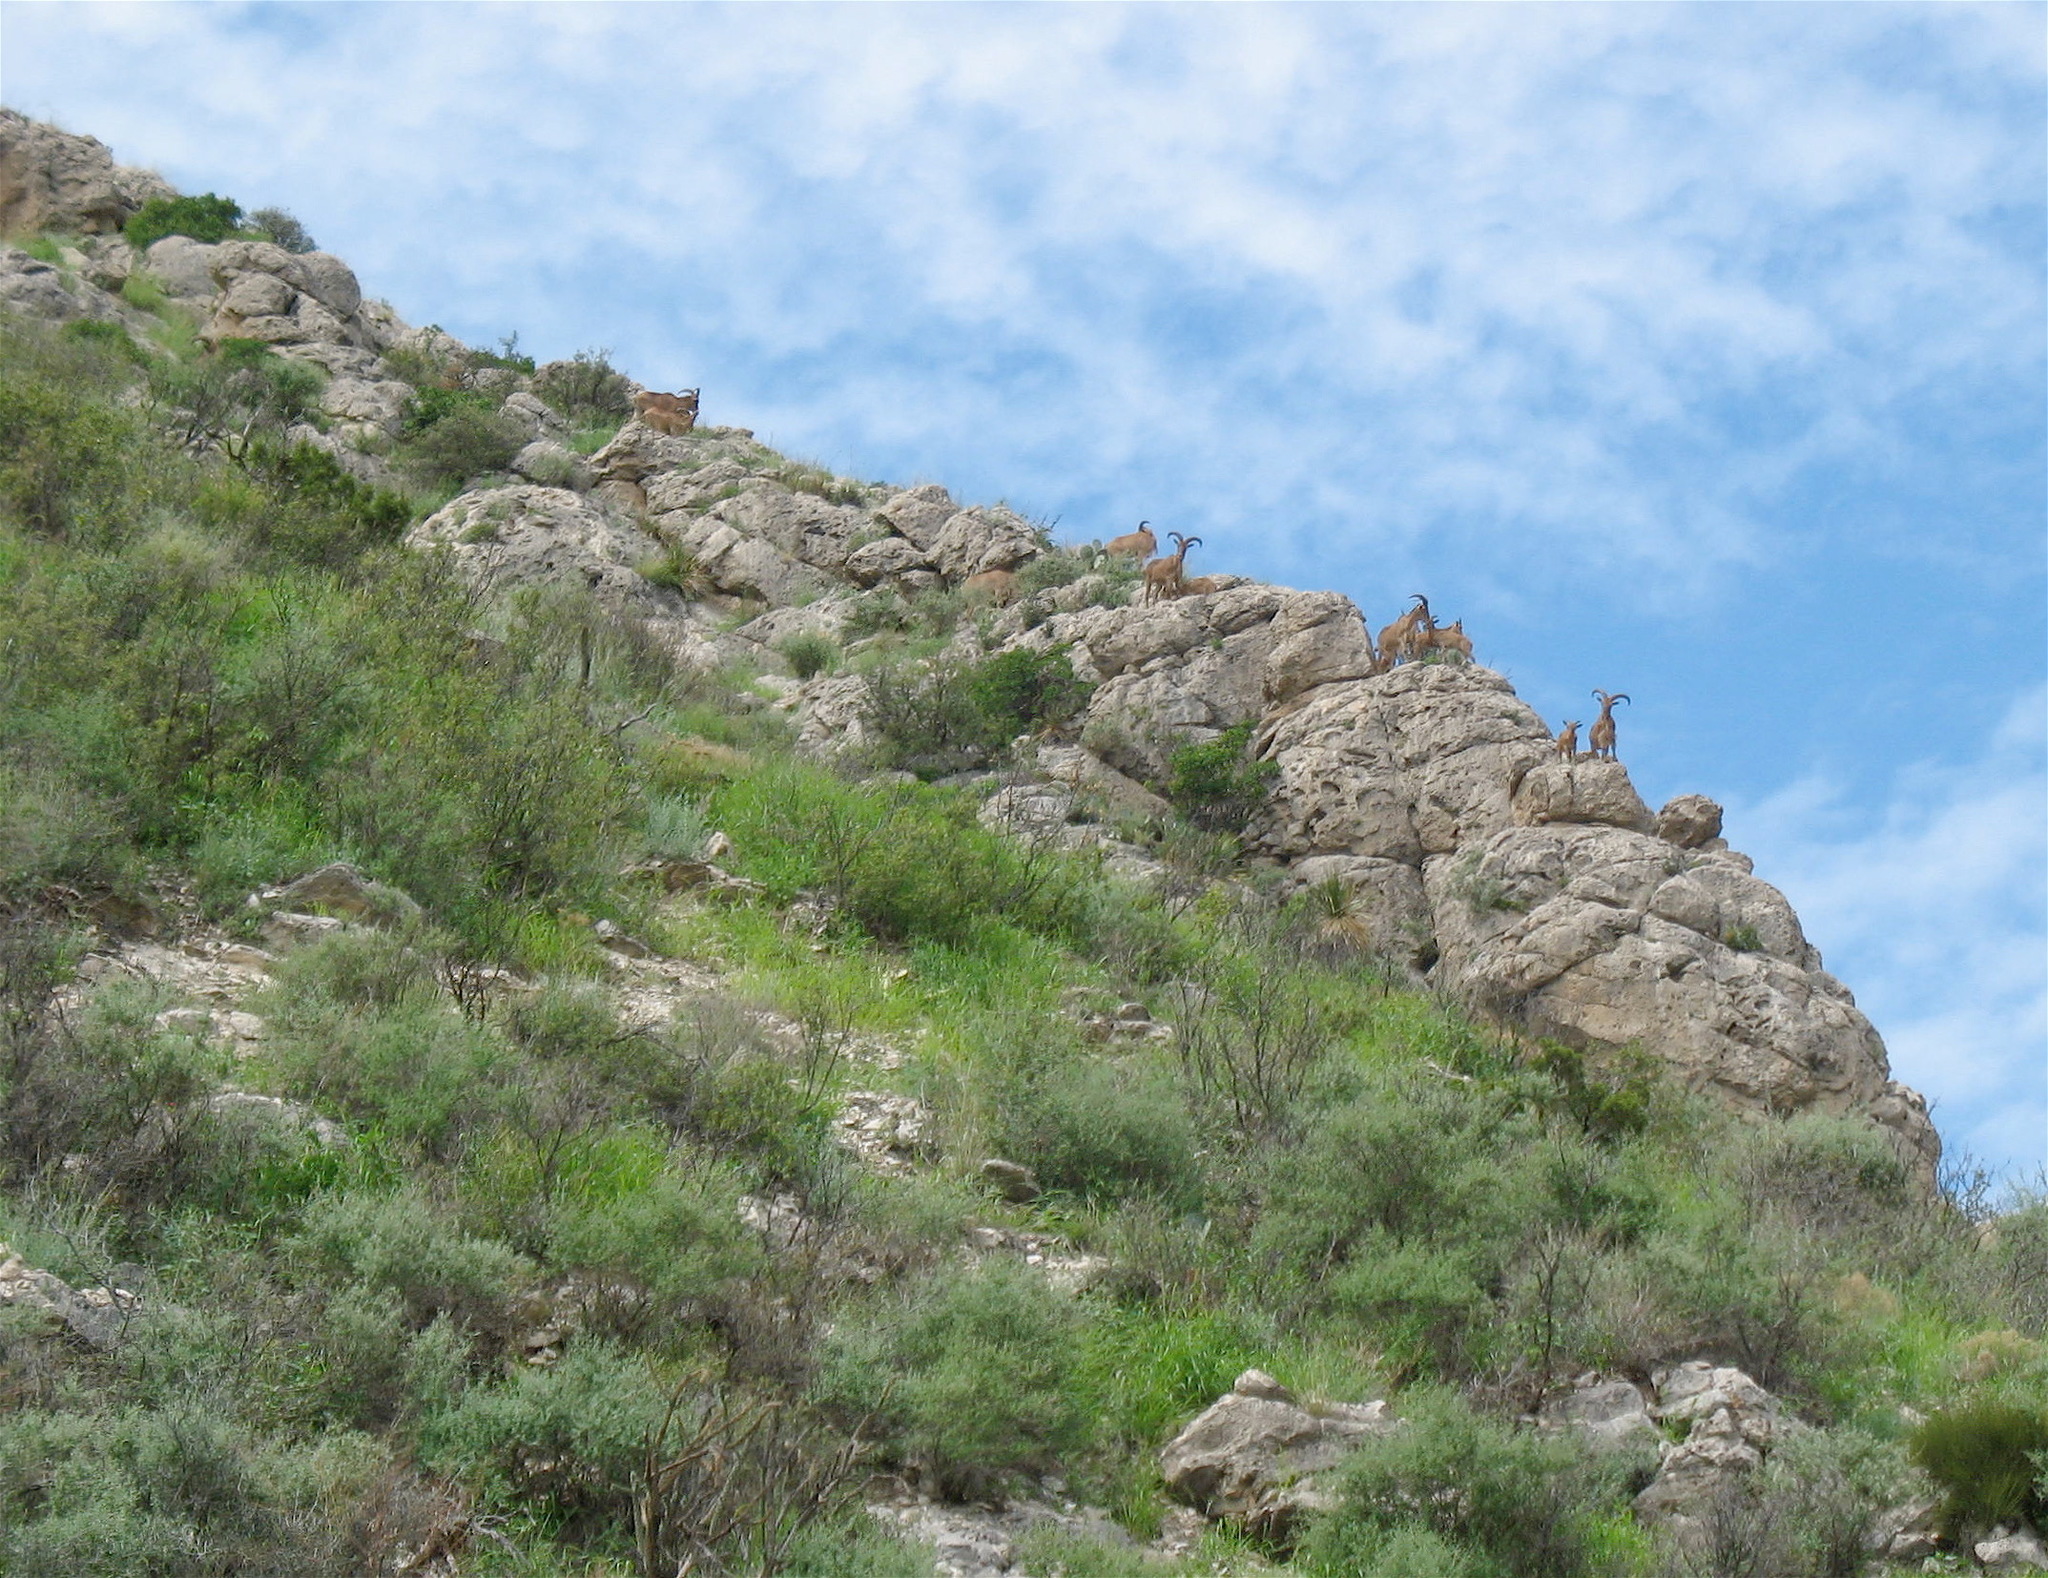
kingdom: Animalia
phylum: Chordata
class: Mammalia
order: Artiodactyla
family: Bovidae
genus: Ammotragus
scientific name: Ammotragus lervia
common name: Barbary sheep
